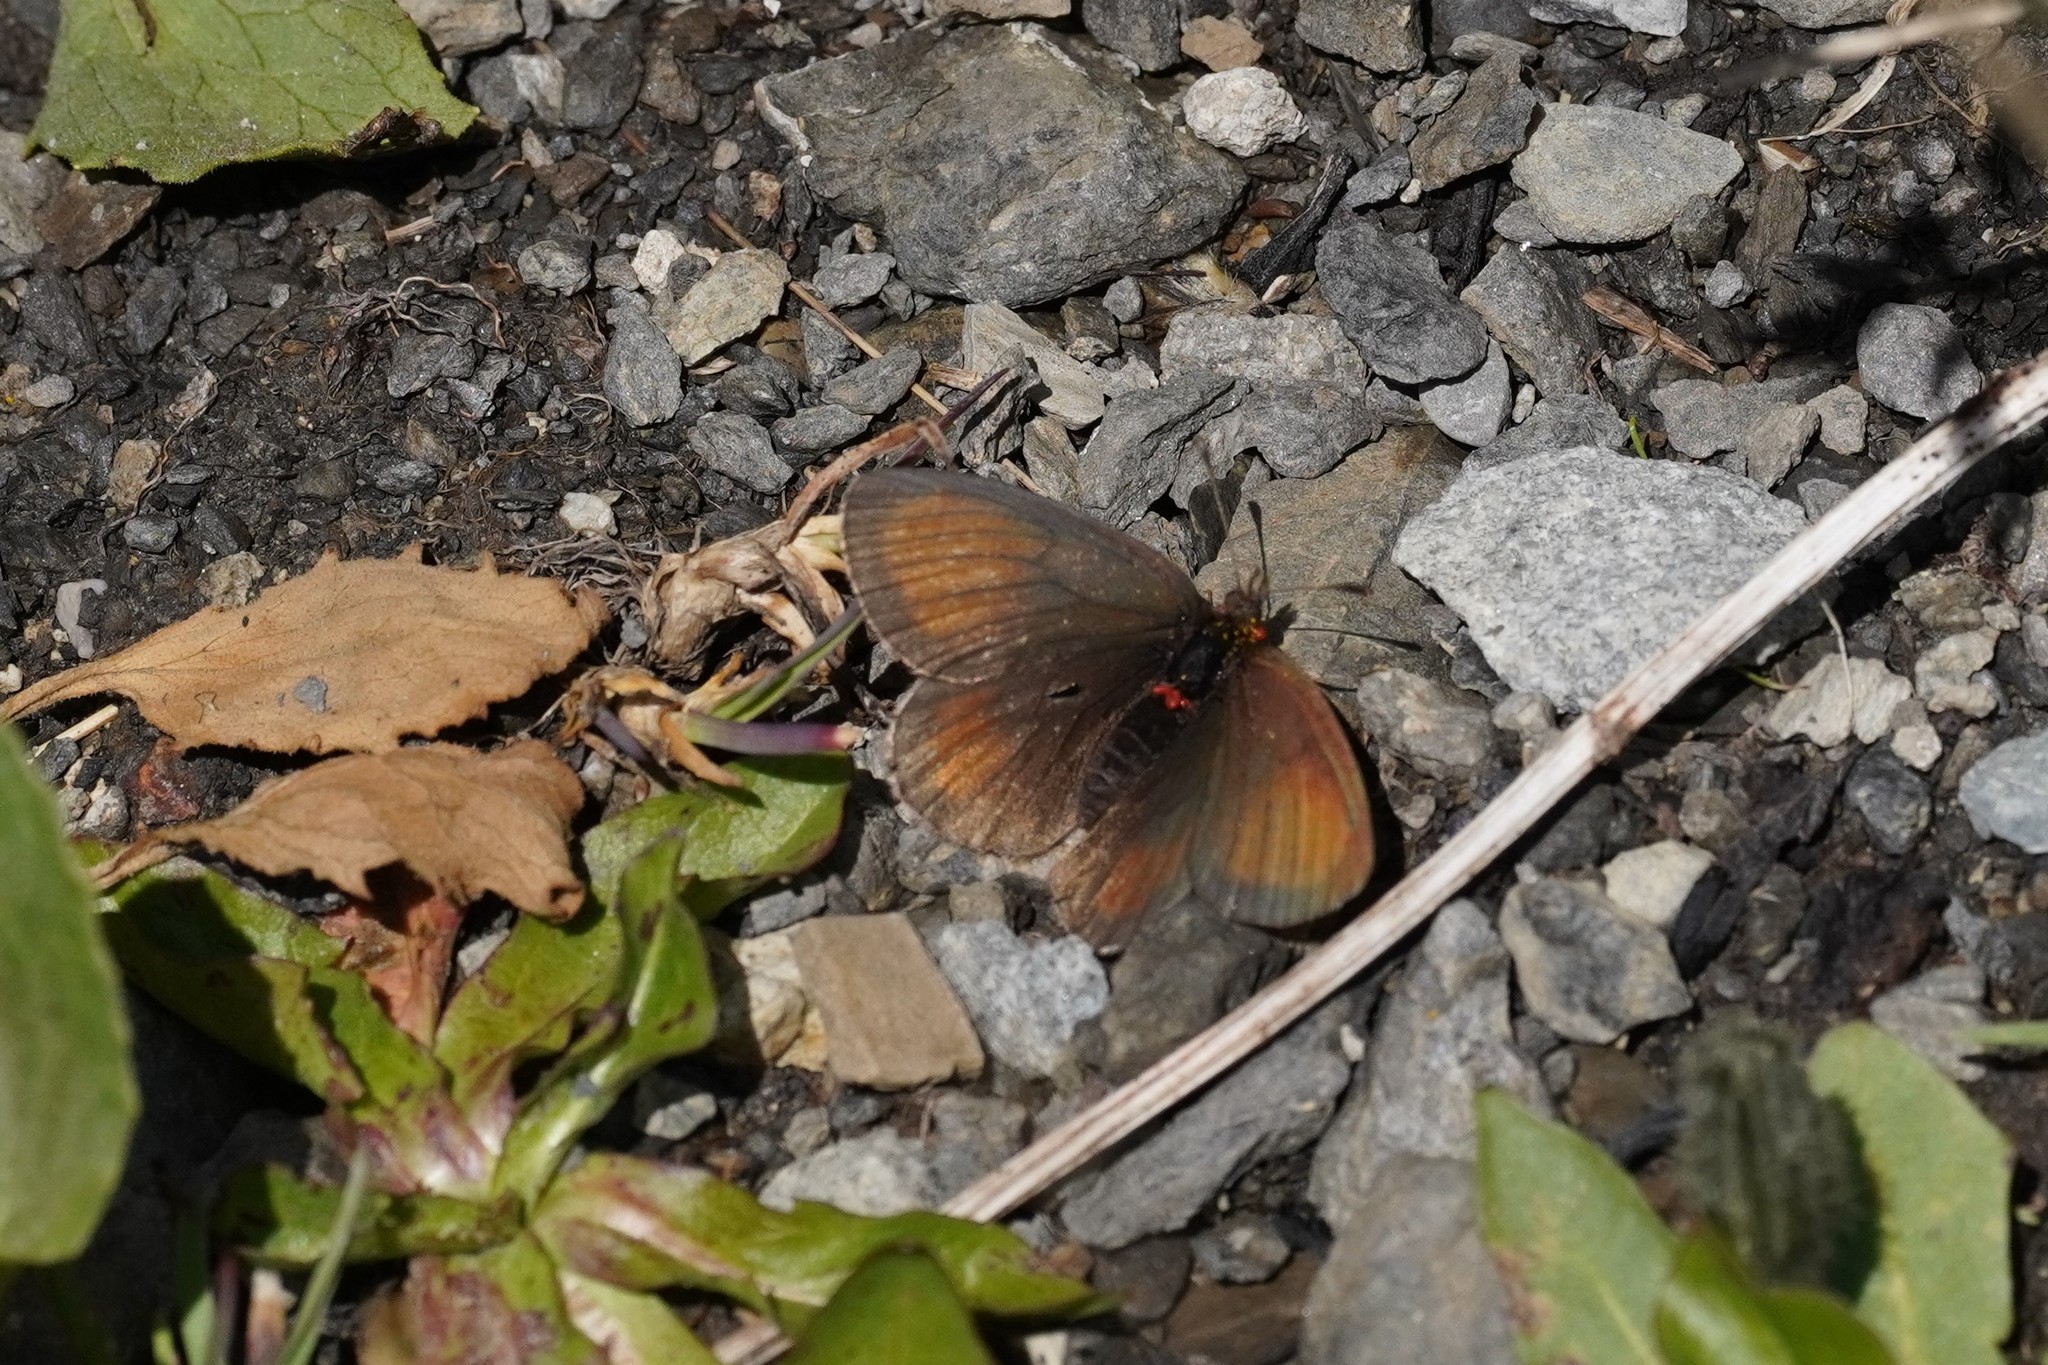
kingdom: Animalia
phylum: Arthropoda
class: Insecta
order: Lepidoptera
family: Nymphalidae
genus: Erebia
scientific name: Erebia gorge
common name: Silky ringlet
